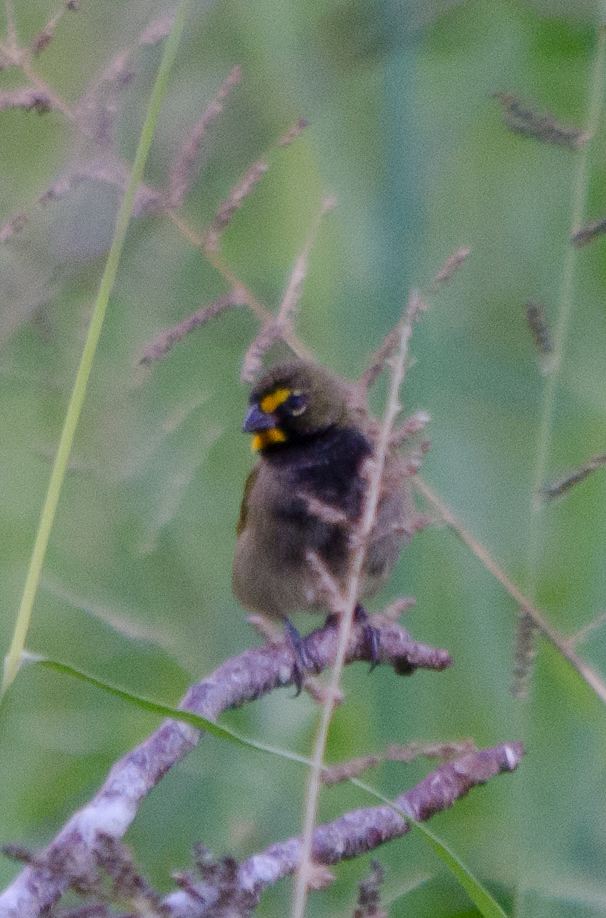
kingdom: Animalia
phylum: Chordata
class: Aves
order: Passeriformes
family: Thraupidae
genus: Tiaris
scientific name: Tiaris olivaceus
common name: Yellow-faced grassquit
